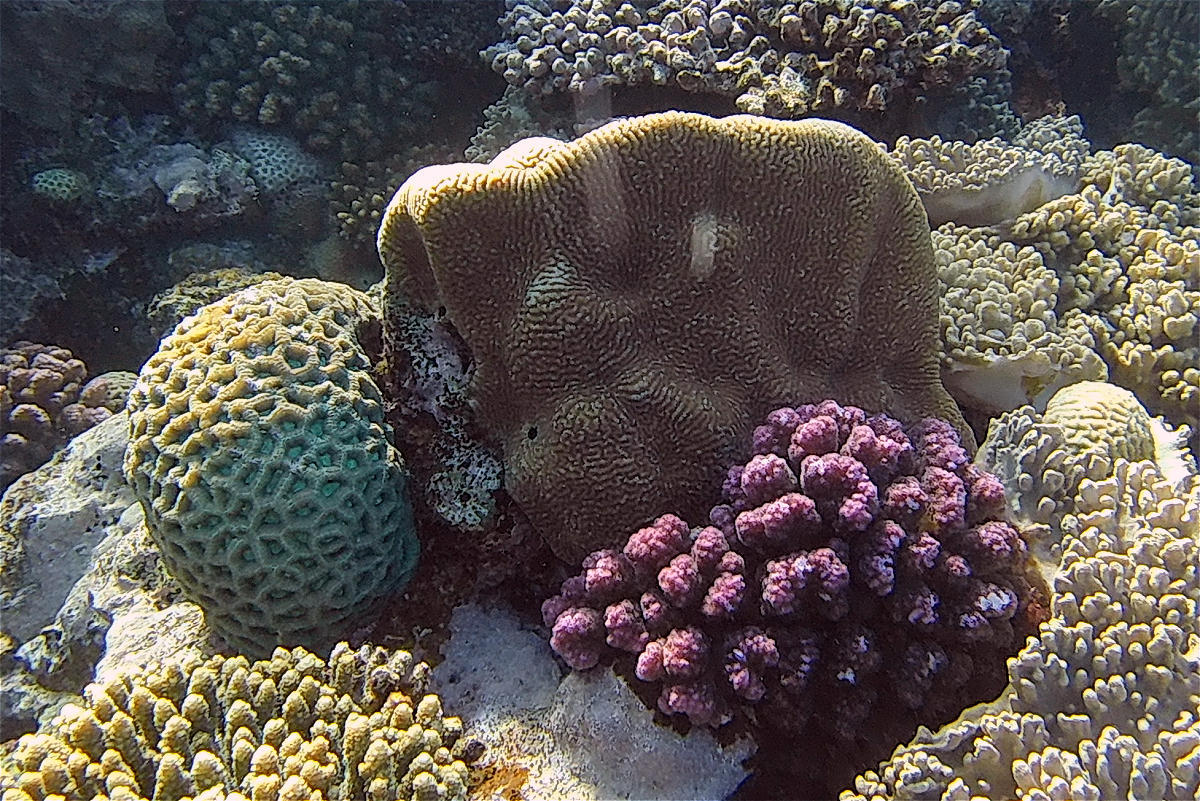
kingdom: Animalia
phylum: Cnidaria
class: Anthozoa
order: Scleractinia
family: Pocilloporidae
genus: Pocillopora
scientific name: Pocillopora verrucosa
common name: Cauliflower coral
